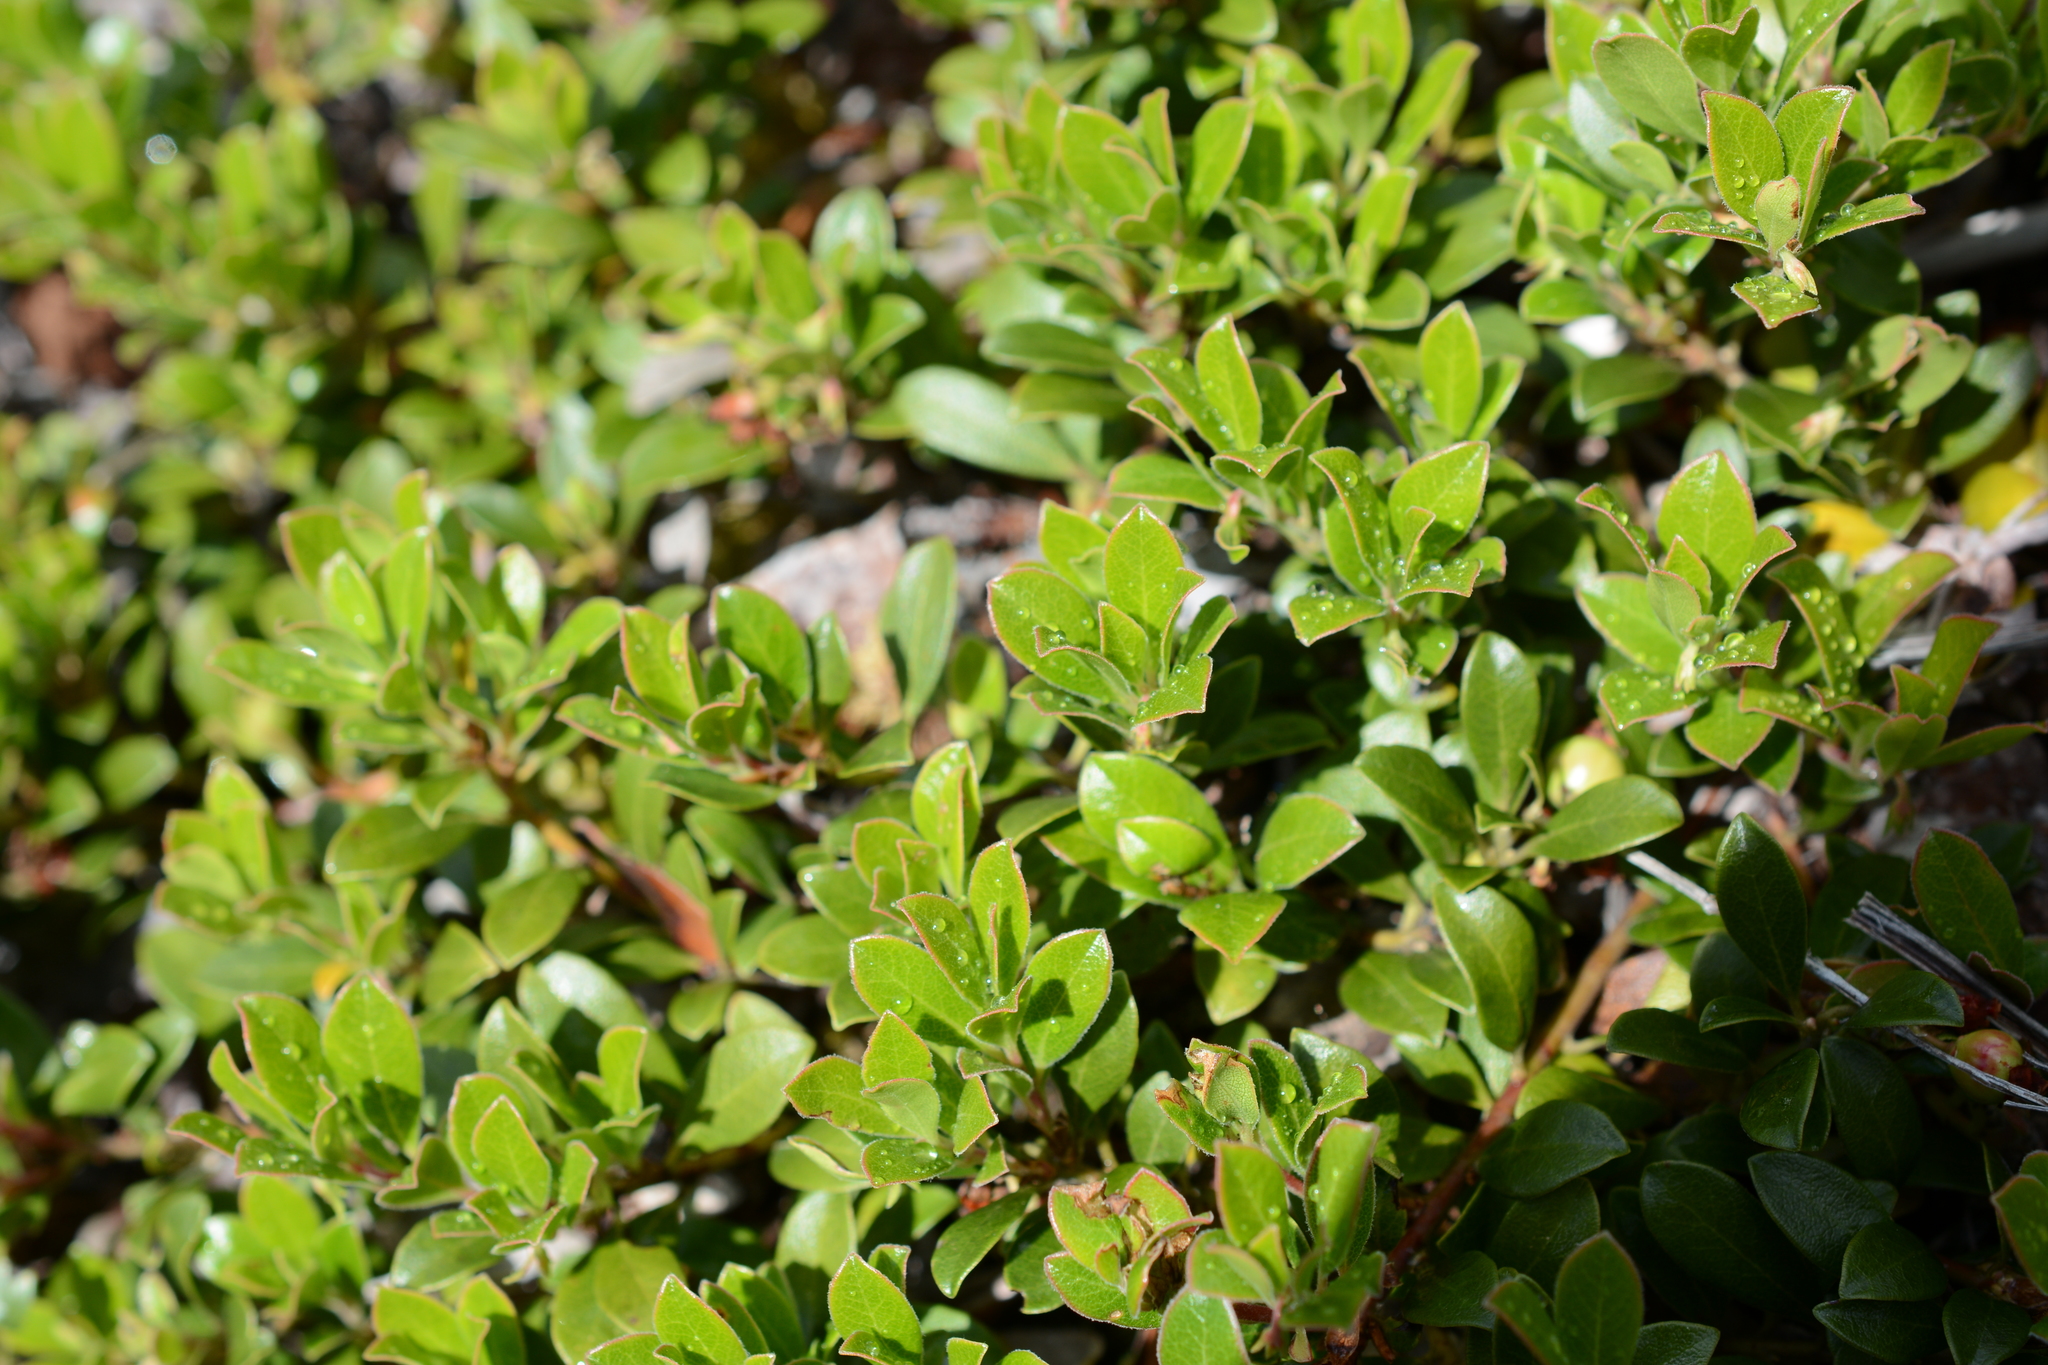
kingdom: Plantae
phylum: Tracheophyta
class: Magnoliopsida
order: Ericales
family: Ericaceae
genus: Arctostaphylos
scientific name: Arctostaphylos uva-ursi
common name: Bearberry
